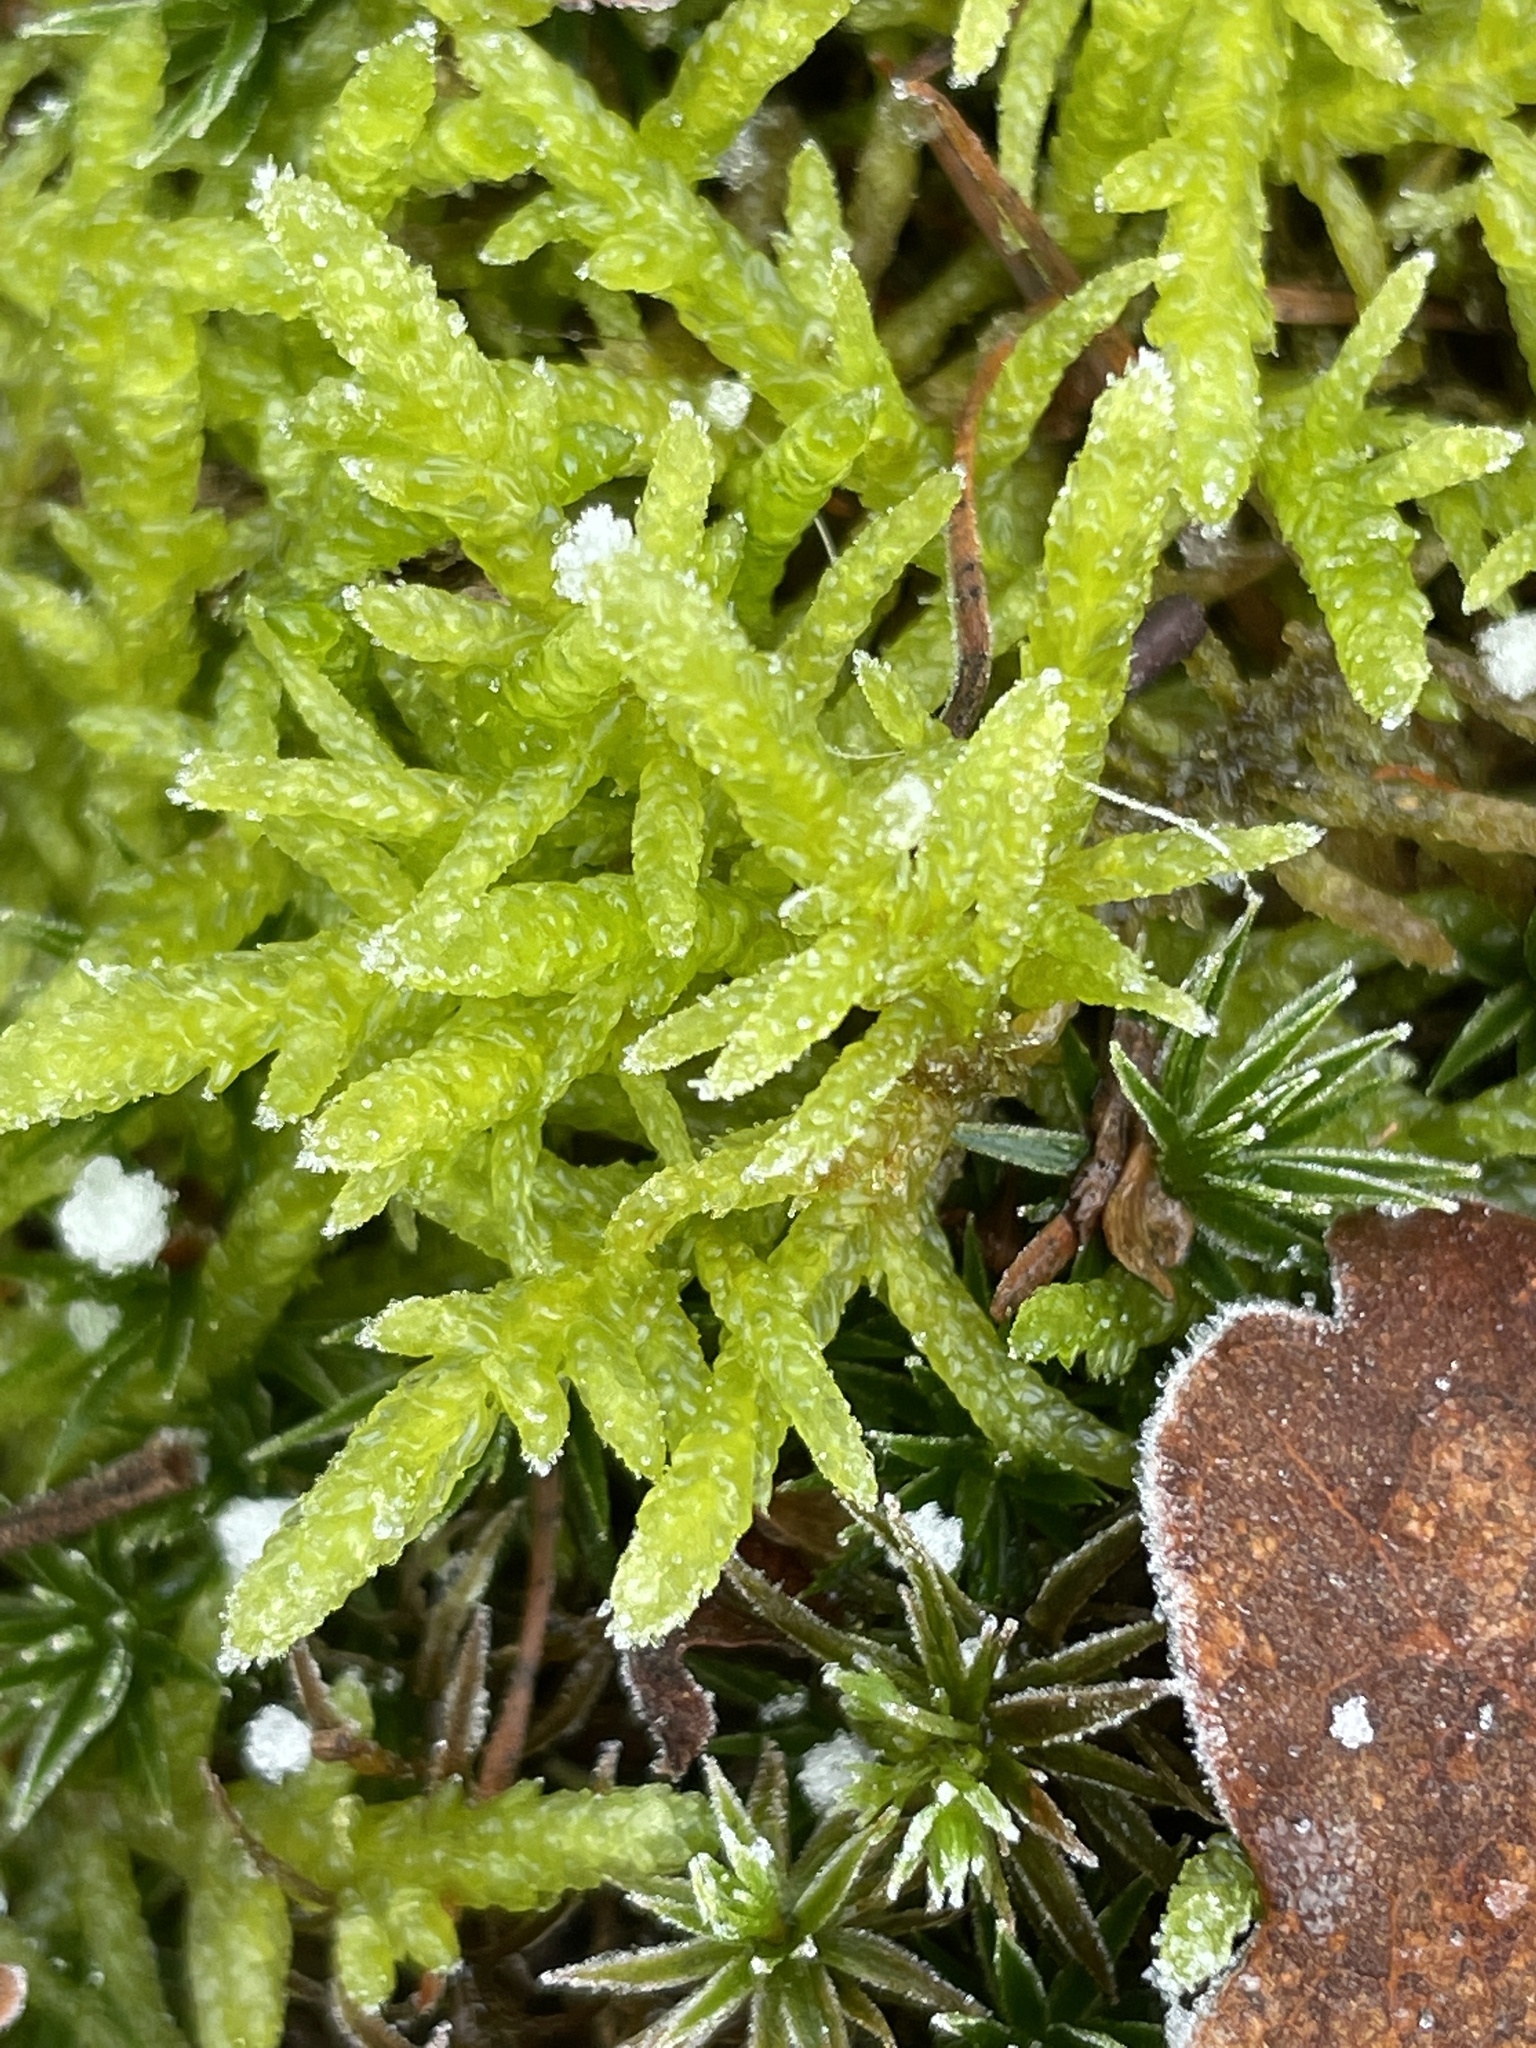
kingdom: Plantae
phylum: Bryophyta
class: Bryopsida
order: Hypnales
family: Brachytheciaceae
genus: Pseudoscleropodium
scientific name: Pseudoscleropodium purum
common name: Neat feather-moss
